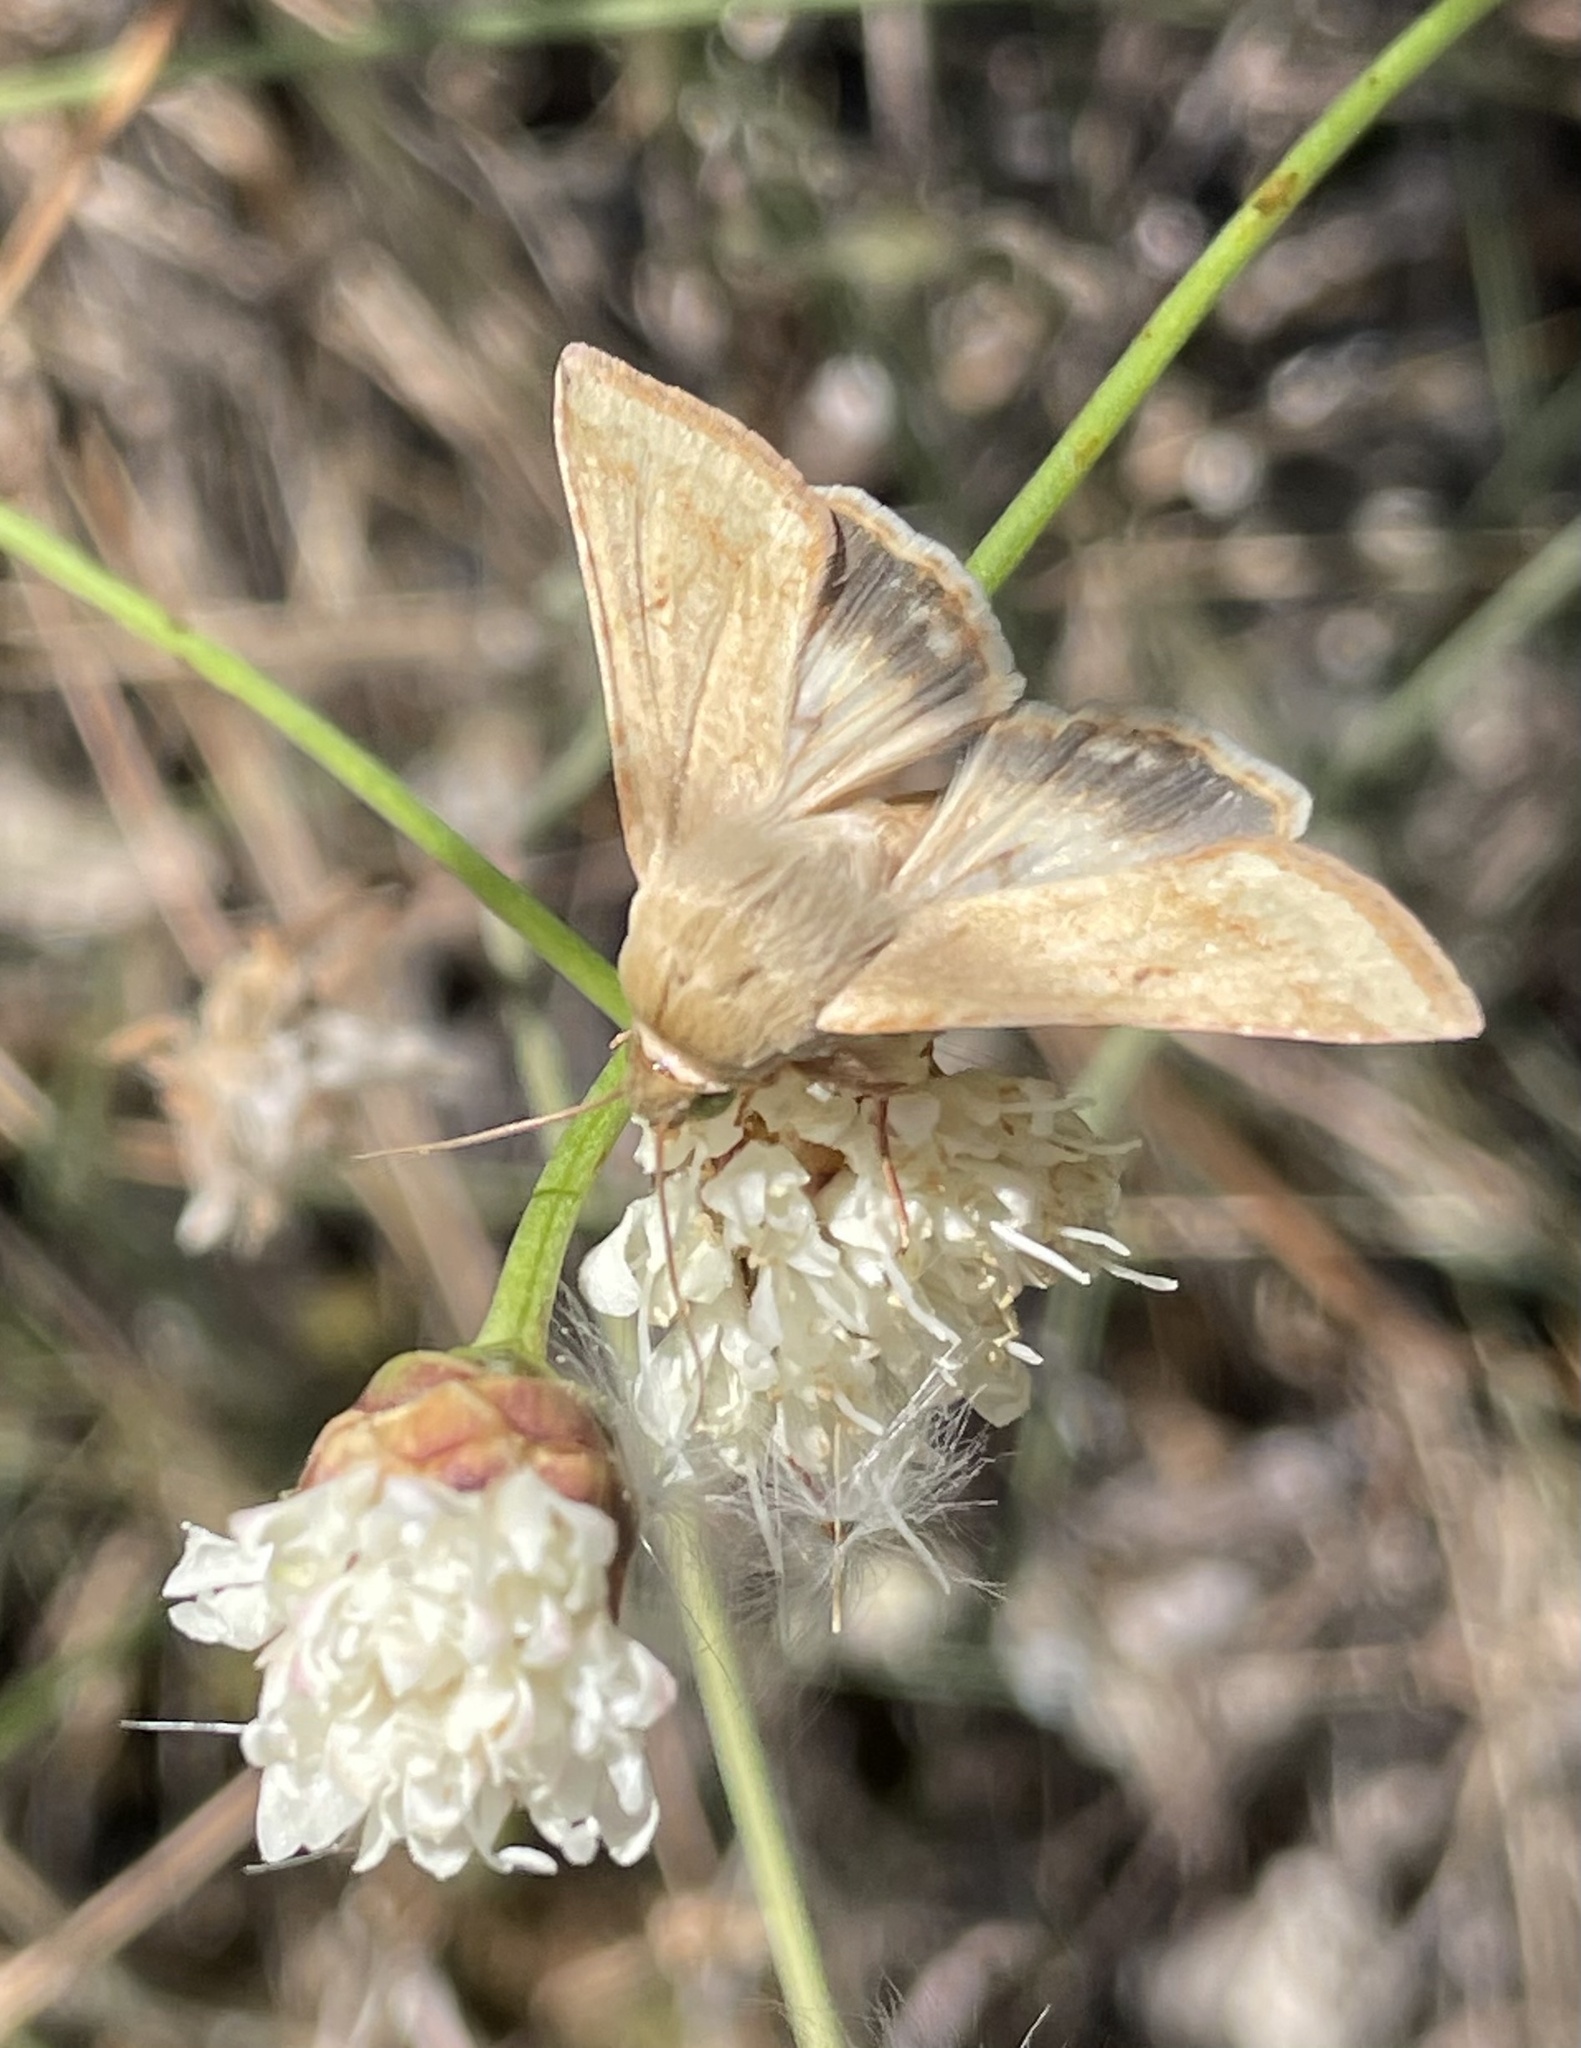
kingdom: Animalia
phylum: Arthropoda
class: Insecta
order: Lepidoptera
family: Noctuidae
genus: Helicoverpa
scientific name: Helicoverpa armigera
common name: Cotton bollworm
